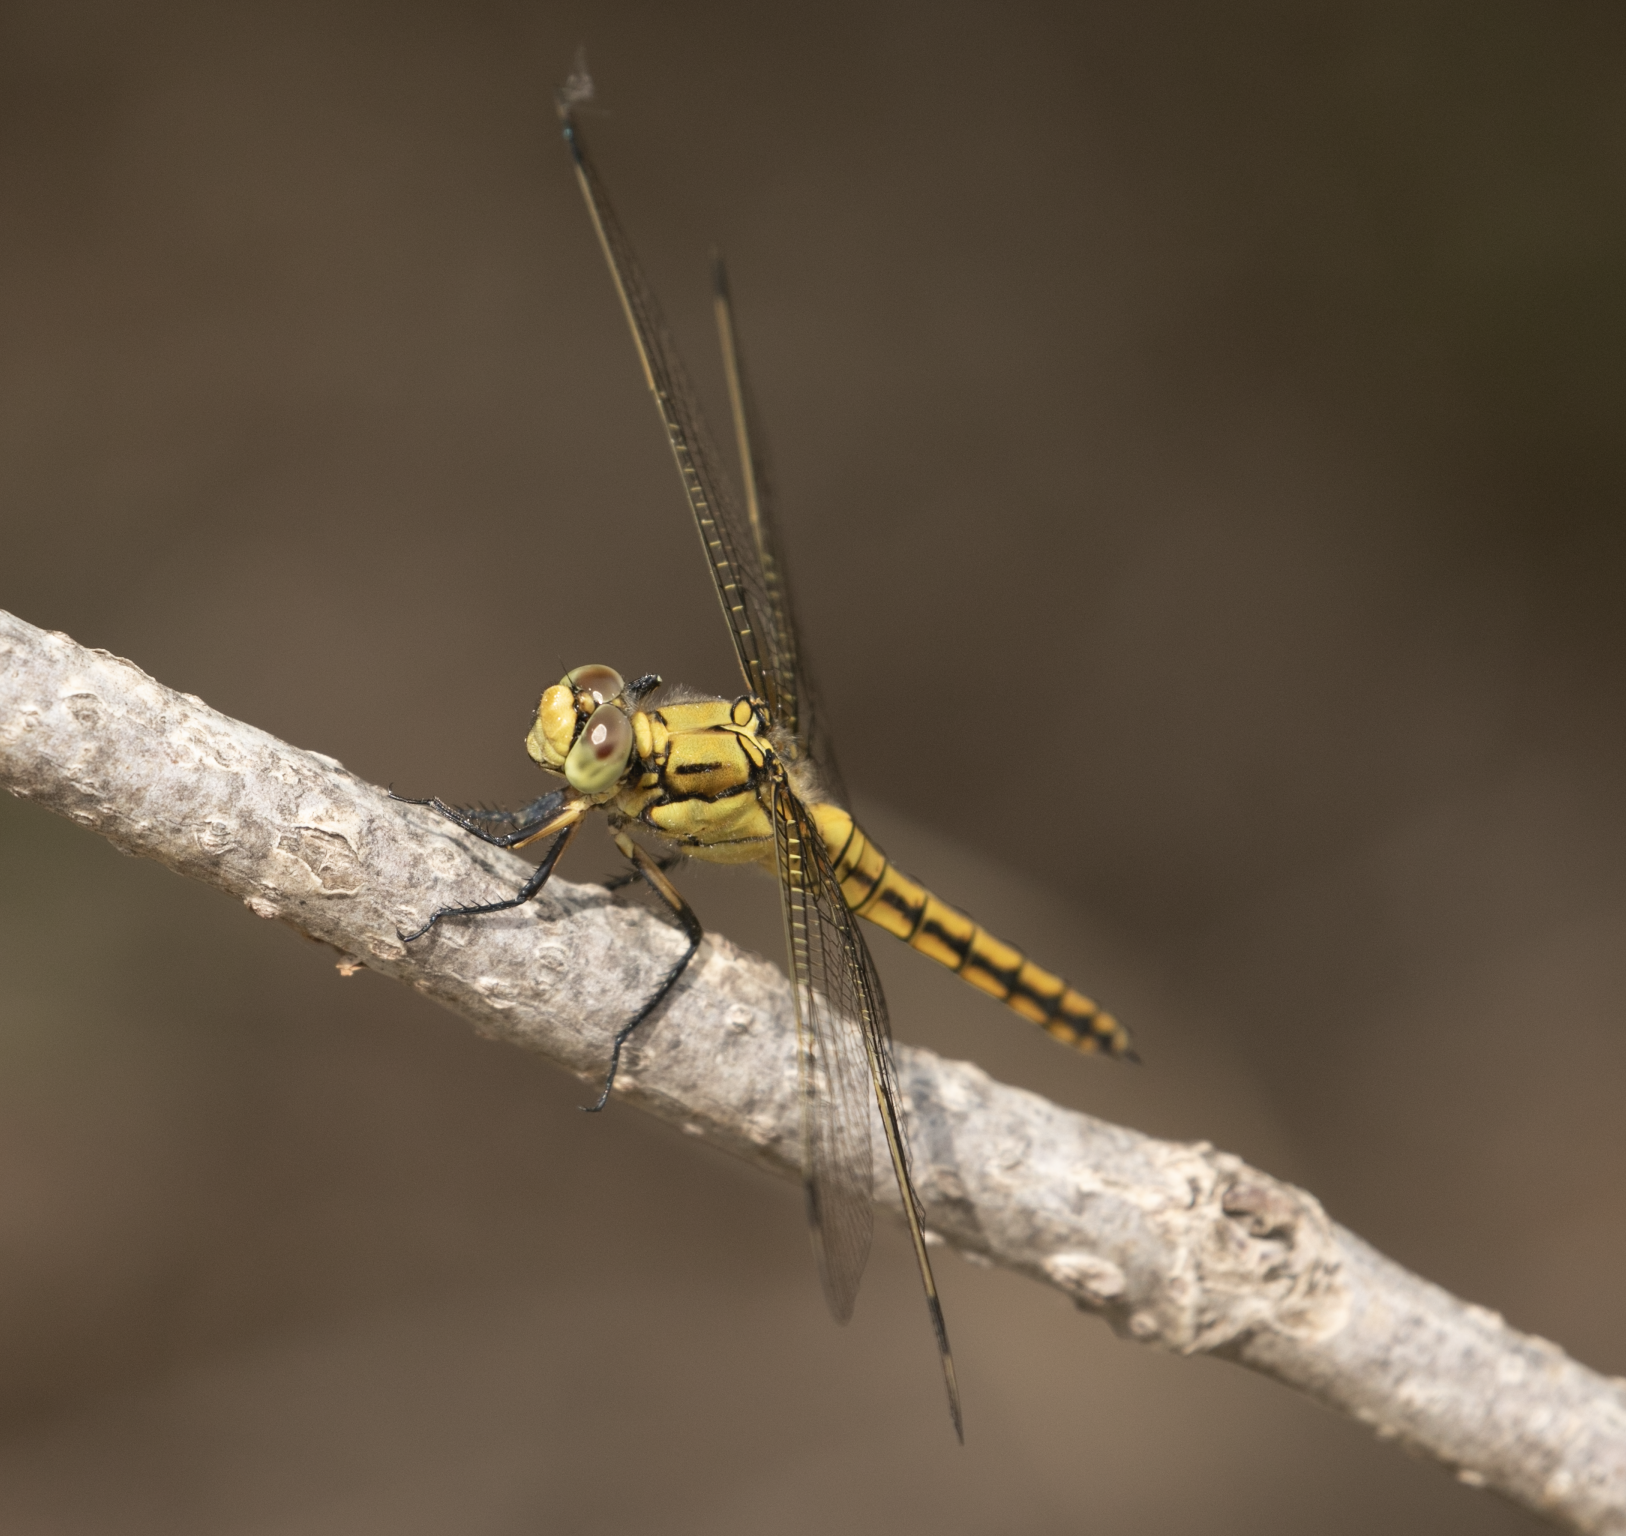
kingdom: Animalia
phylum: Arthropoda
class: Insecta
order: Odonata
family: Libellulidae
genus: Orthetrum
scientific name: Orthetrum cancellatum
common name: Black-tailed skimmer
